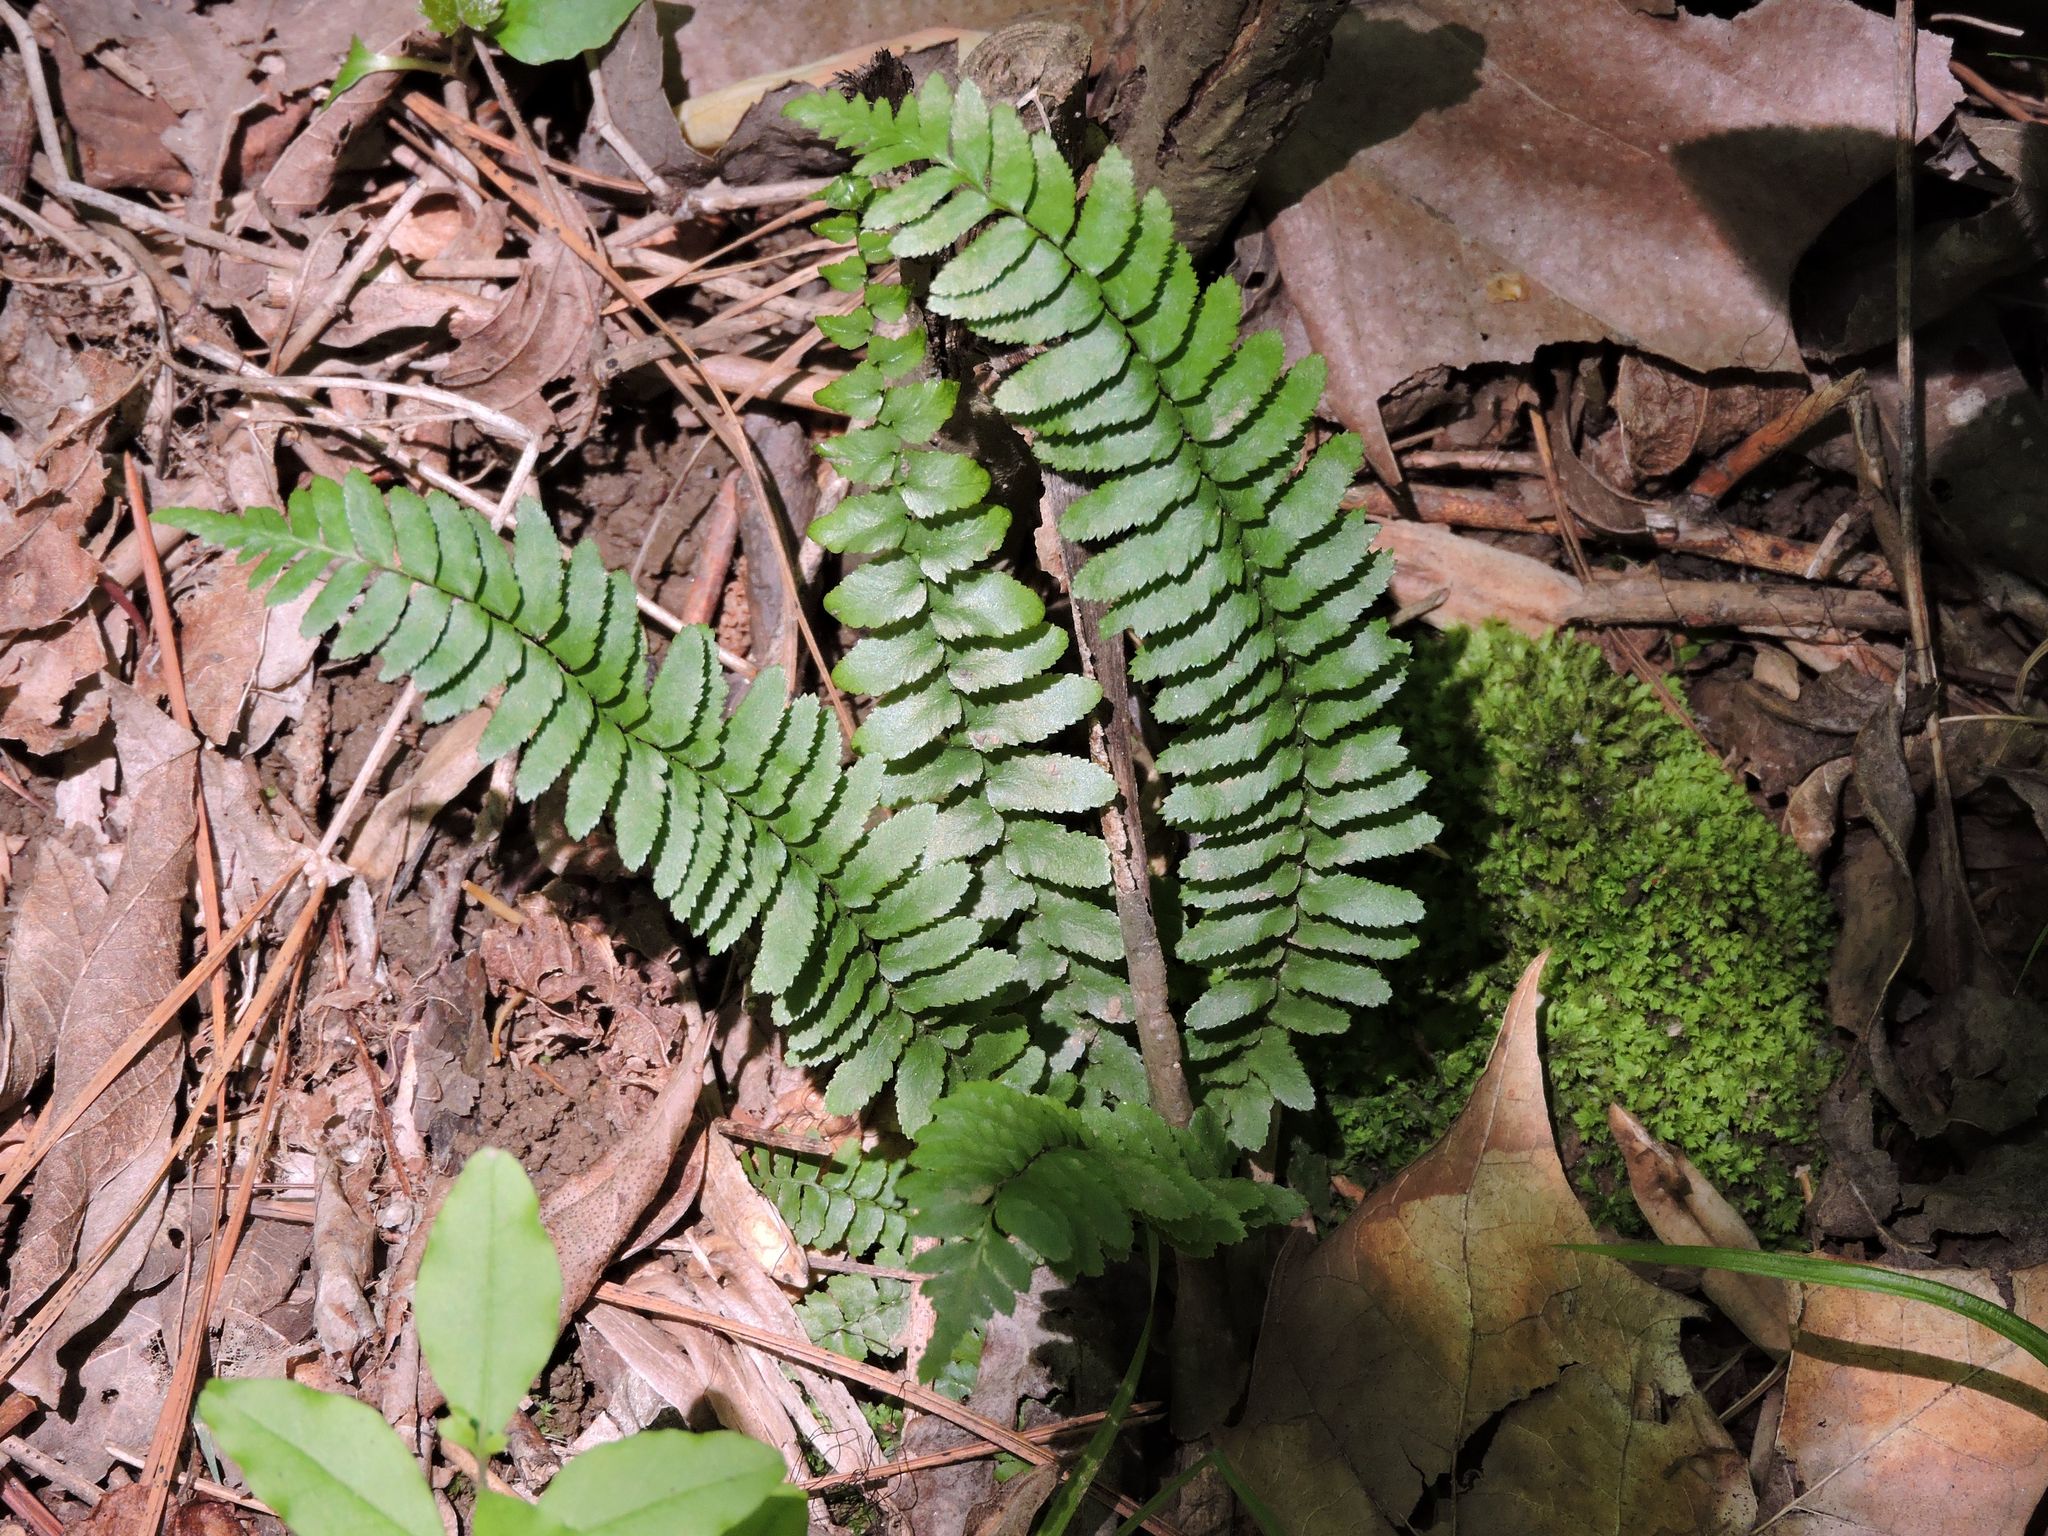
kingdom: Plantae
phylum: Tracheophyta
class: Polypodiopsida
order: Polypodiales
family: Aspleniaceae
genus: Asplenium
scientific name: Asplenium platyneuron
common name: Ebony spleenwort
